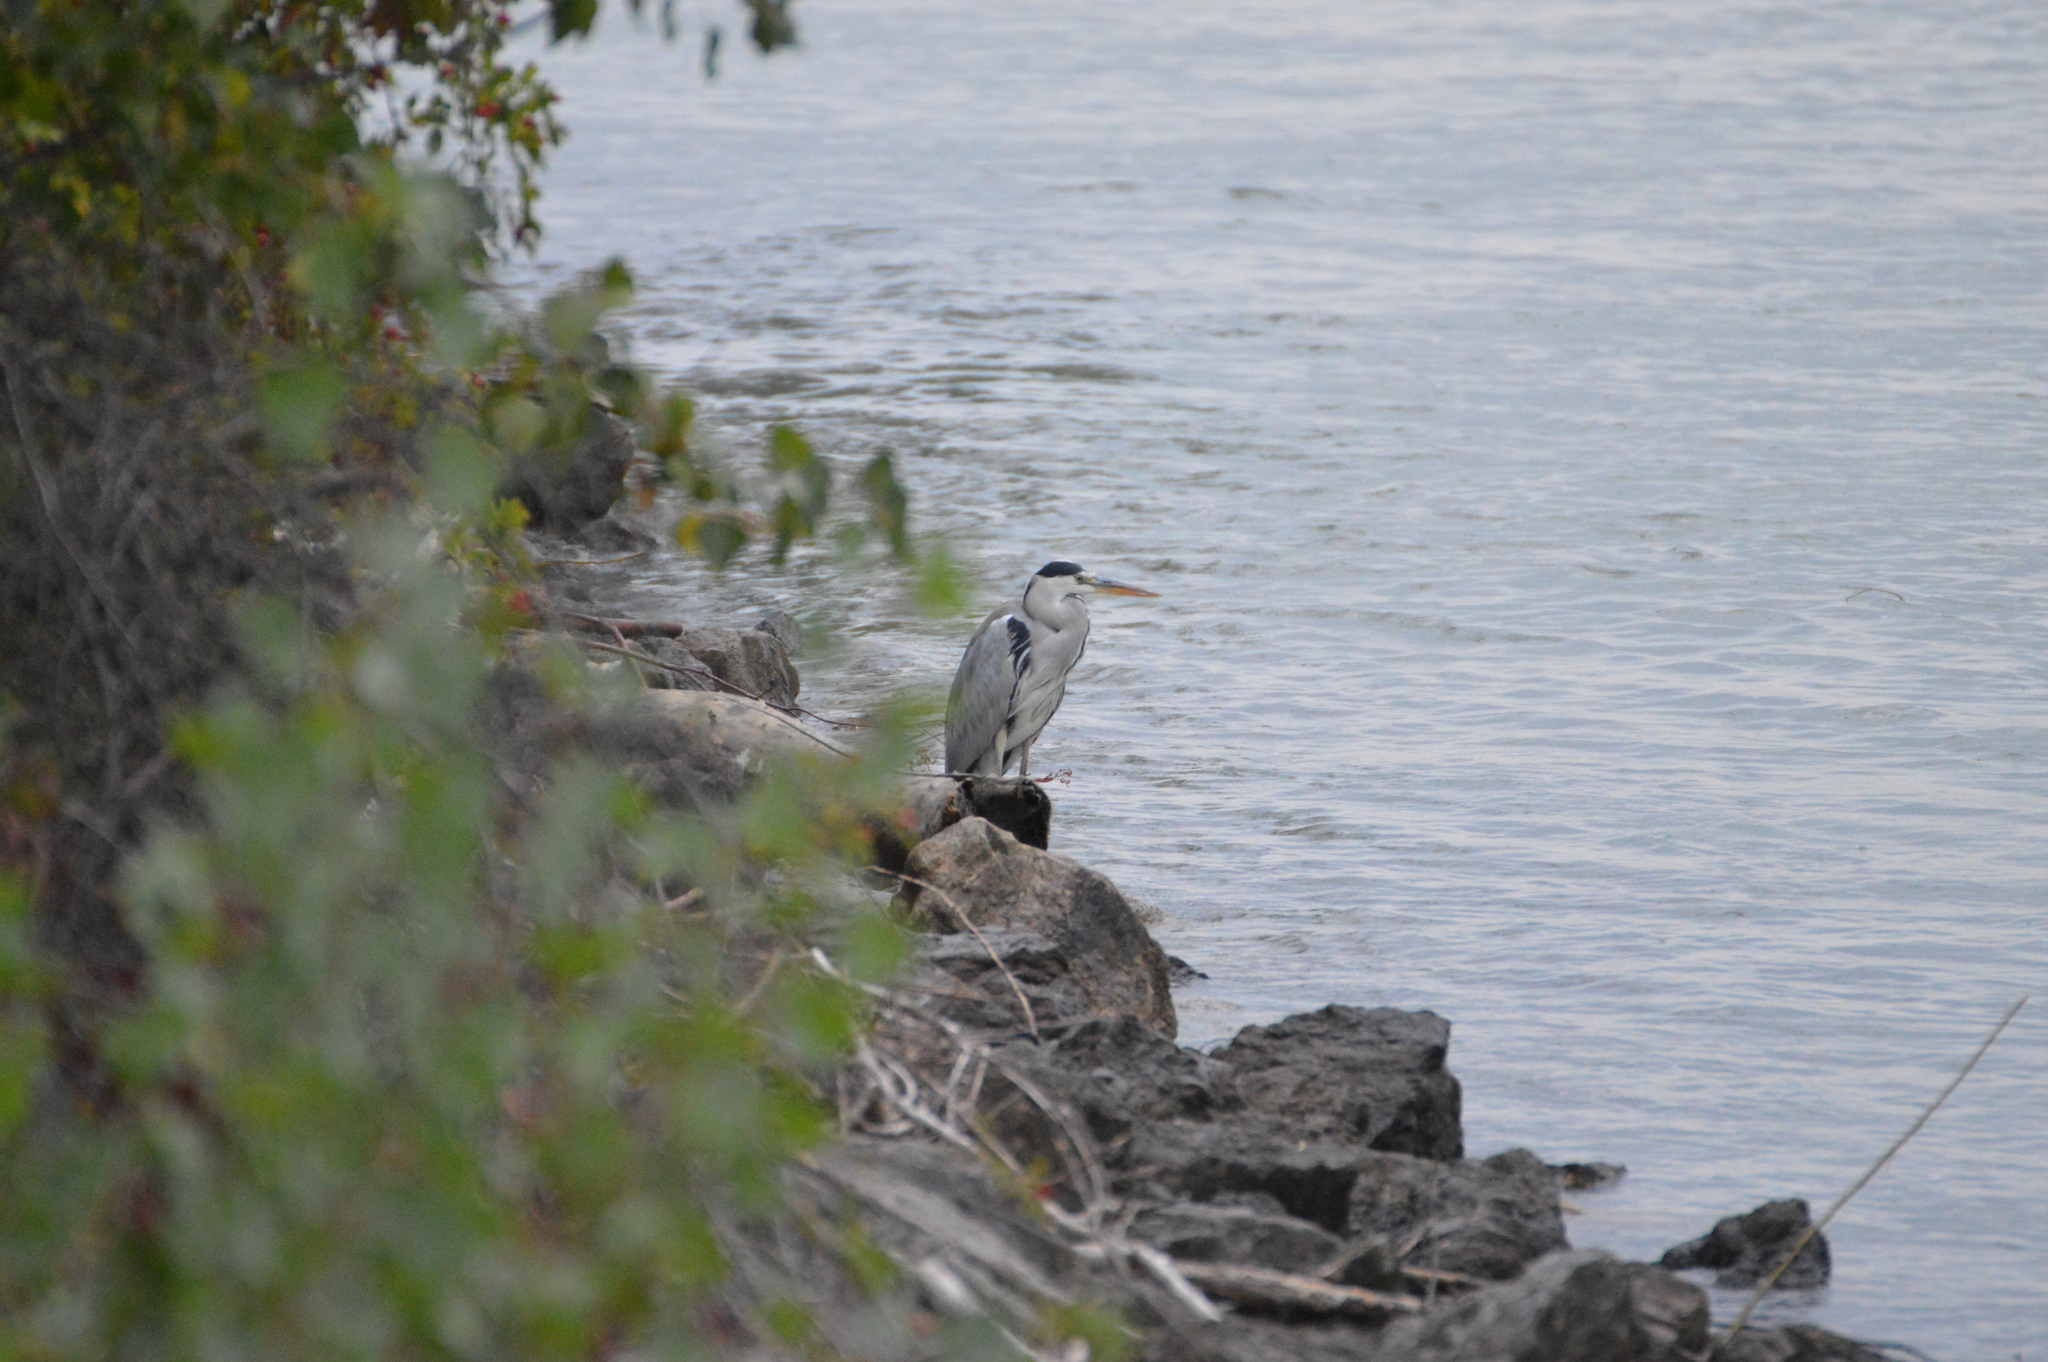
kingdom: Animalia
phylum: Chordata
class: Aves
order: Pelecaniformes
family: Ardeidae
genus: Ardea
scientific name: Ardea cinerea
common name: Grey heron
